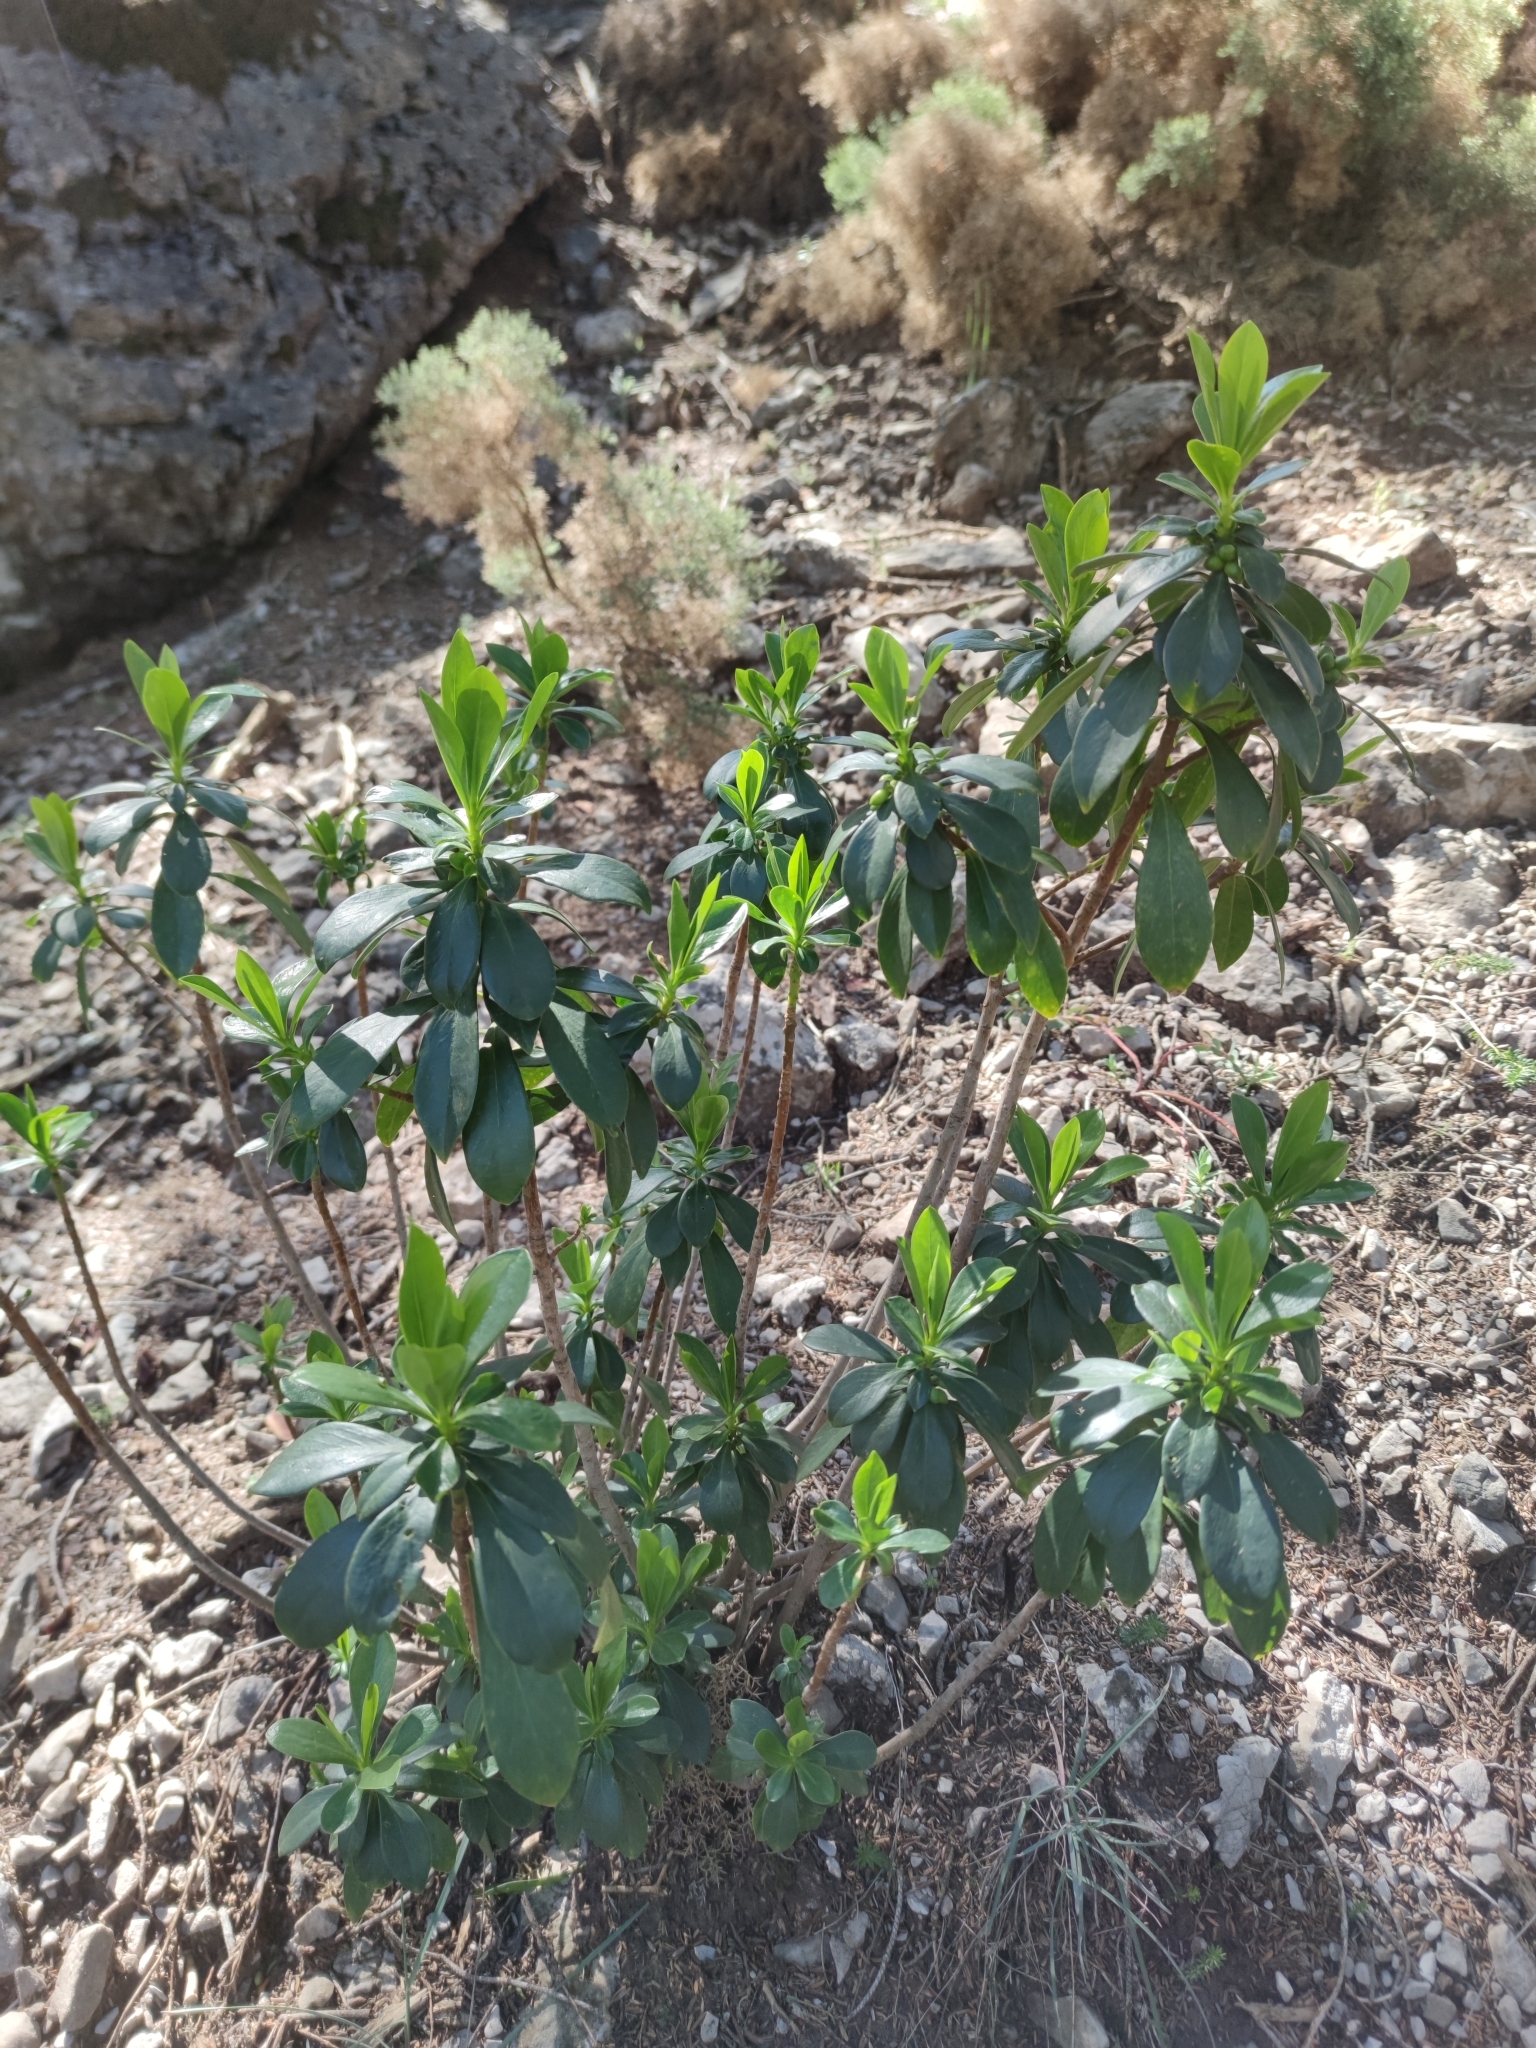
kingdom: Plantae
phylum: Tracheophyta
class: Magnoliopsida
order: Malvales
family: Thymelaeaceae
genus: Daphne
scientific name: Daphne laureola
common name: Spurge-laurel
